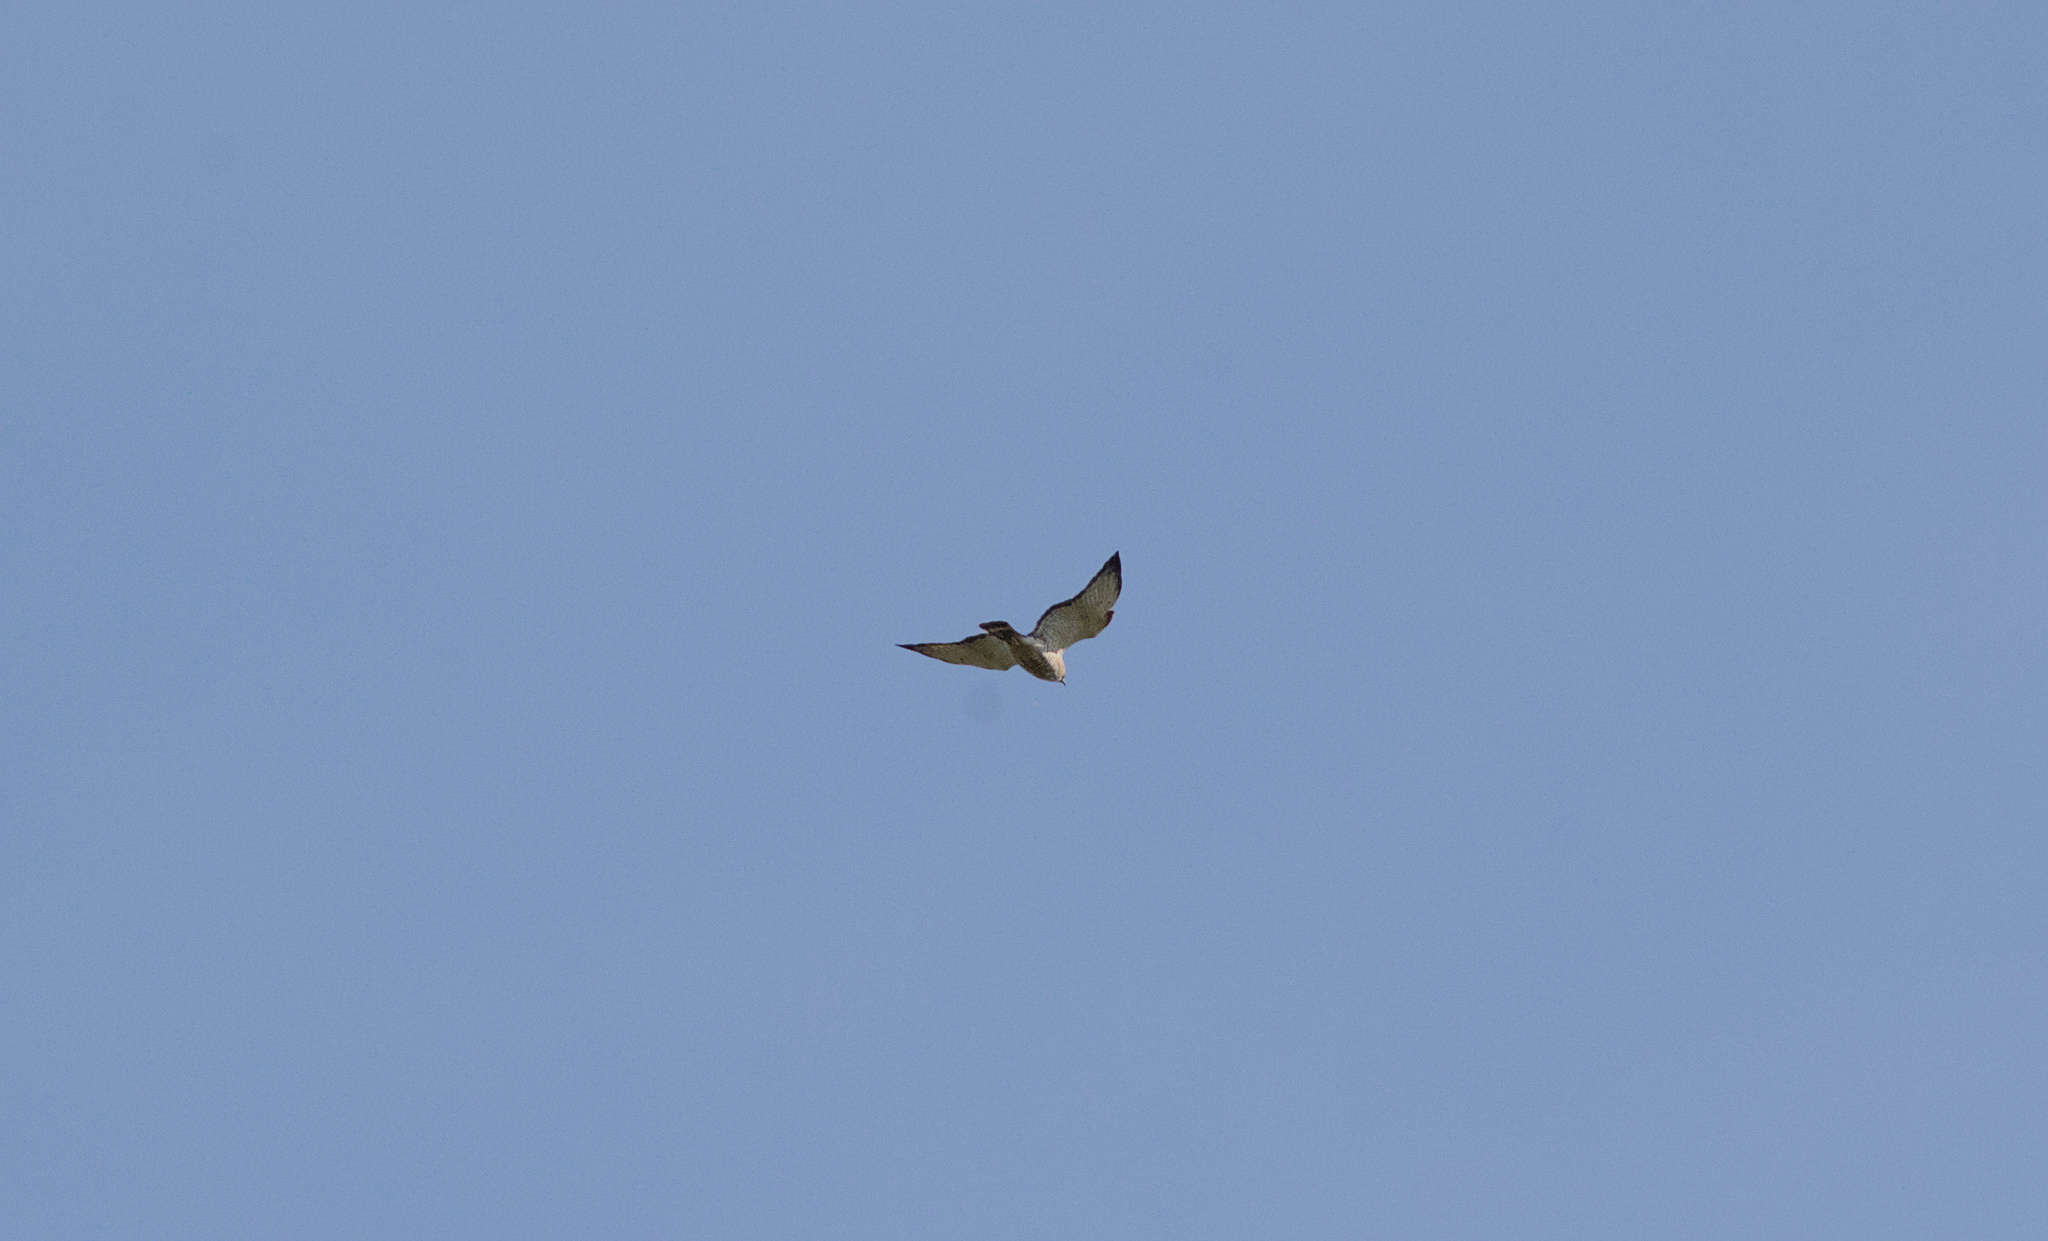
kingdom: Animalia
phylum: Chordata
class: Aves
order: Accipitriformes
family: Accipitridae
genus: Buteo
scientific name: Buteo platypterus
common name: Broad-winged hawk
